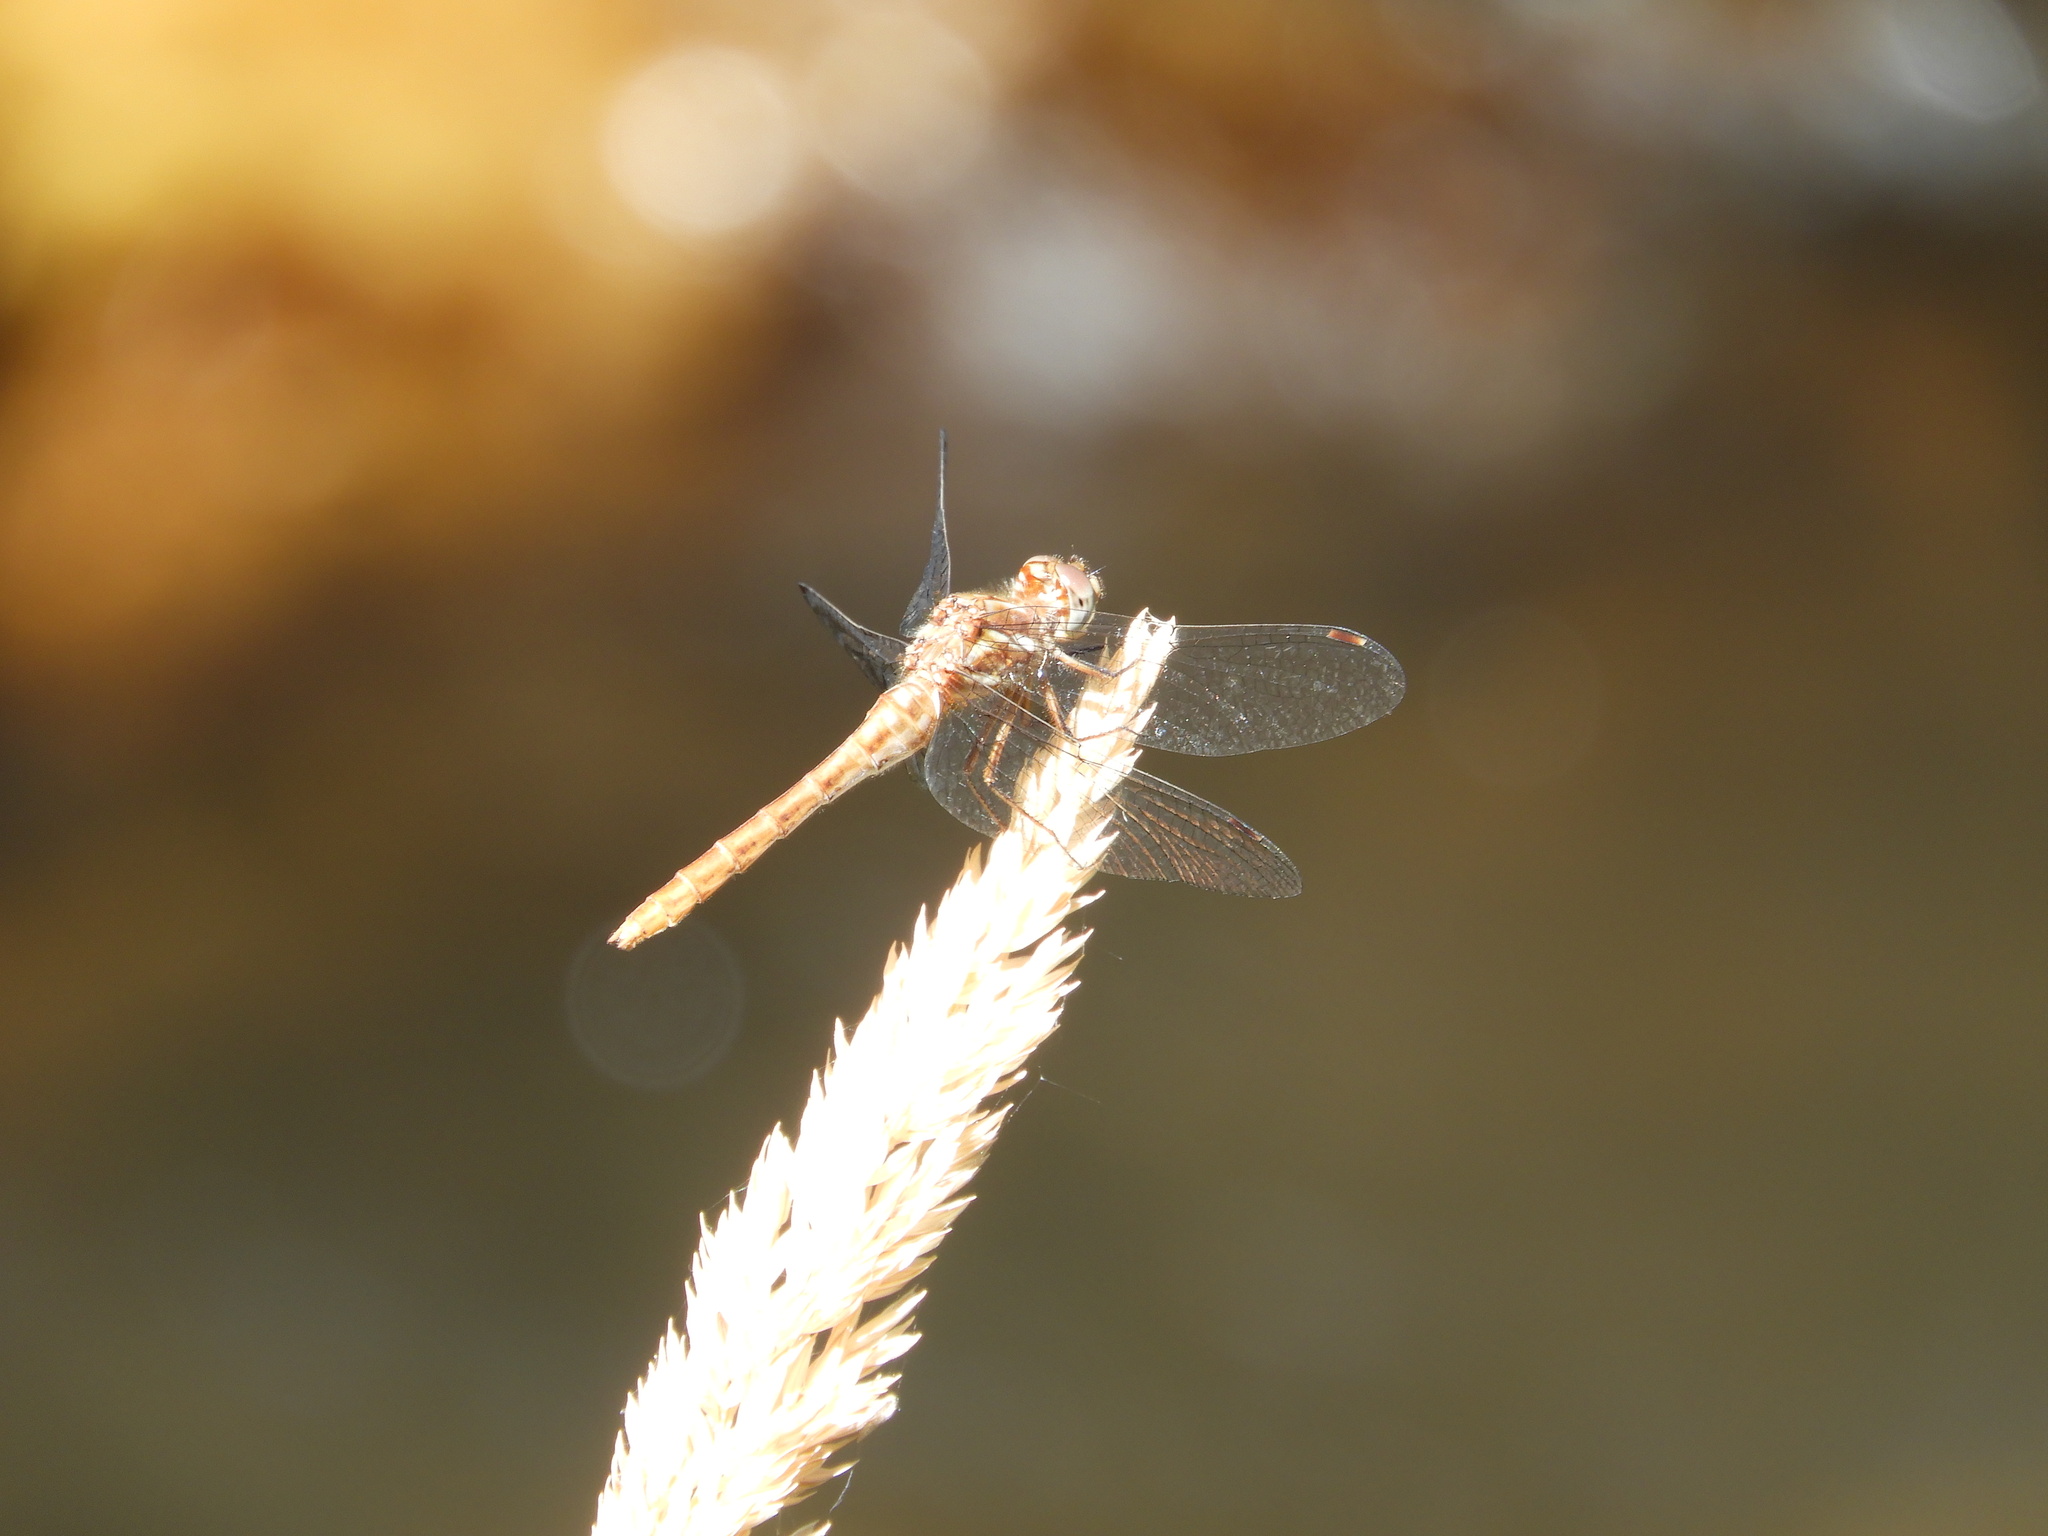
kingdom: Animalia
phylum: Arthropoda
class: Insecta
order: Odonata
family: Libellulidae
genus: Sympetrum
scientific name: Sympetrum pallipes
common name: Striped meadowhawk
